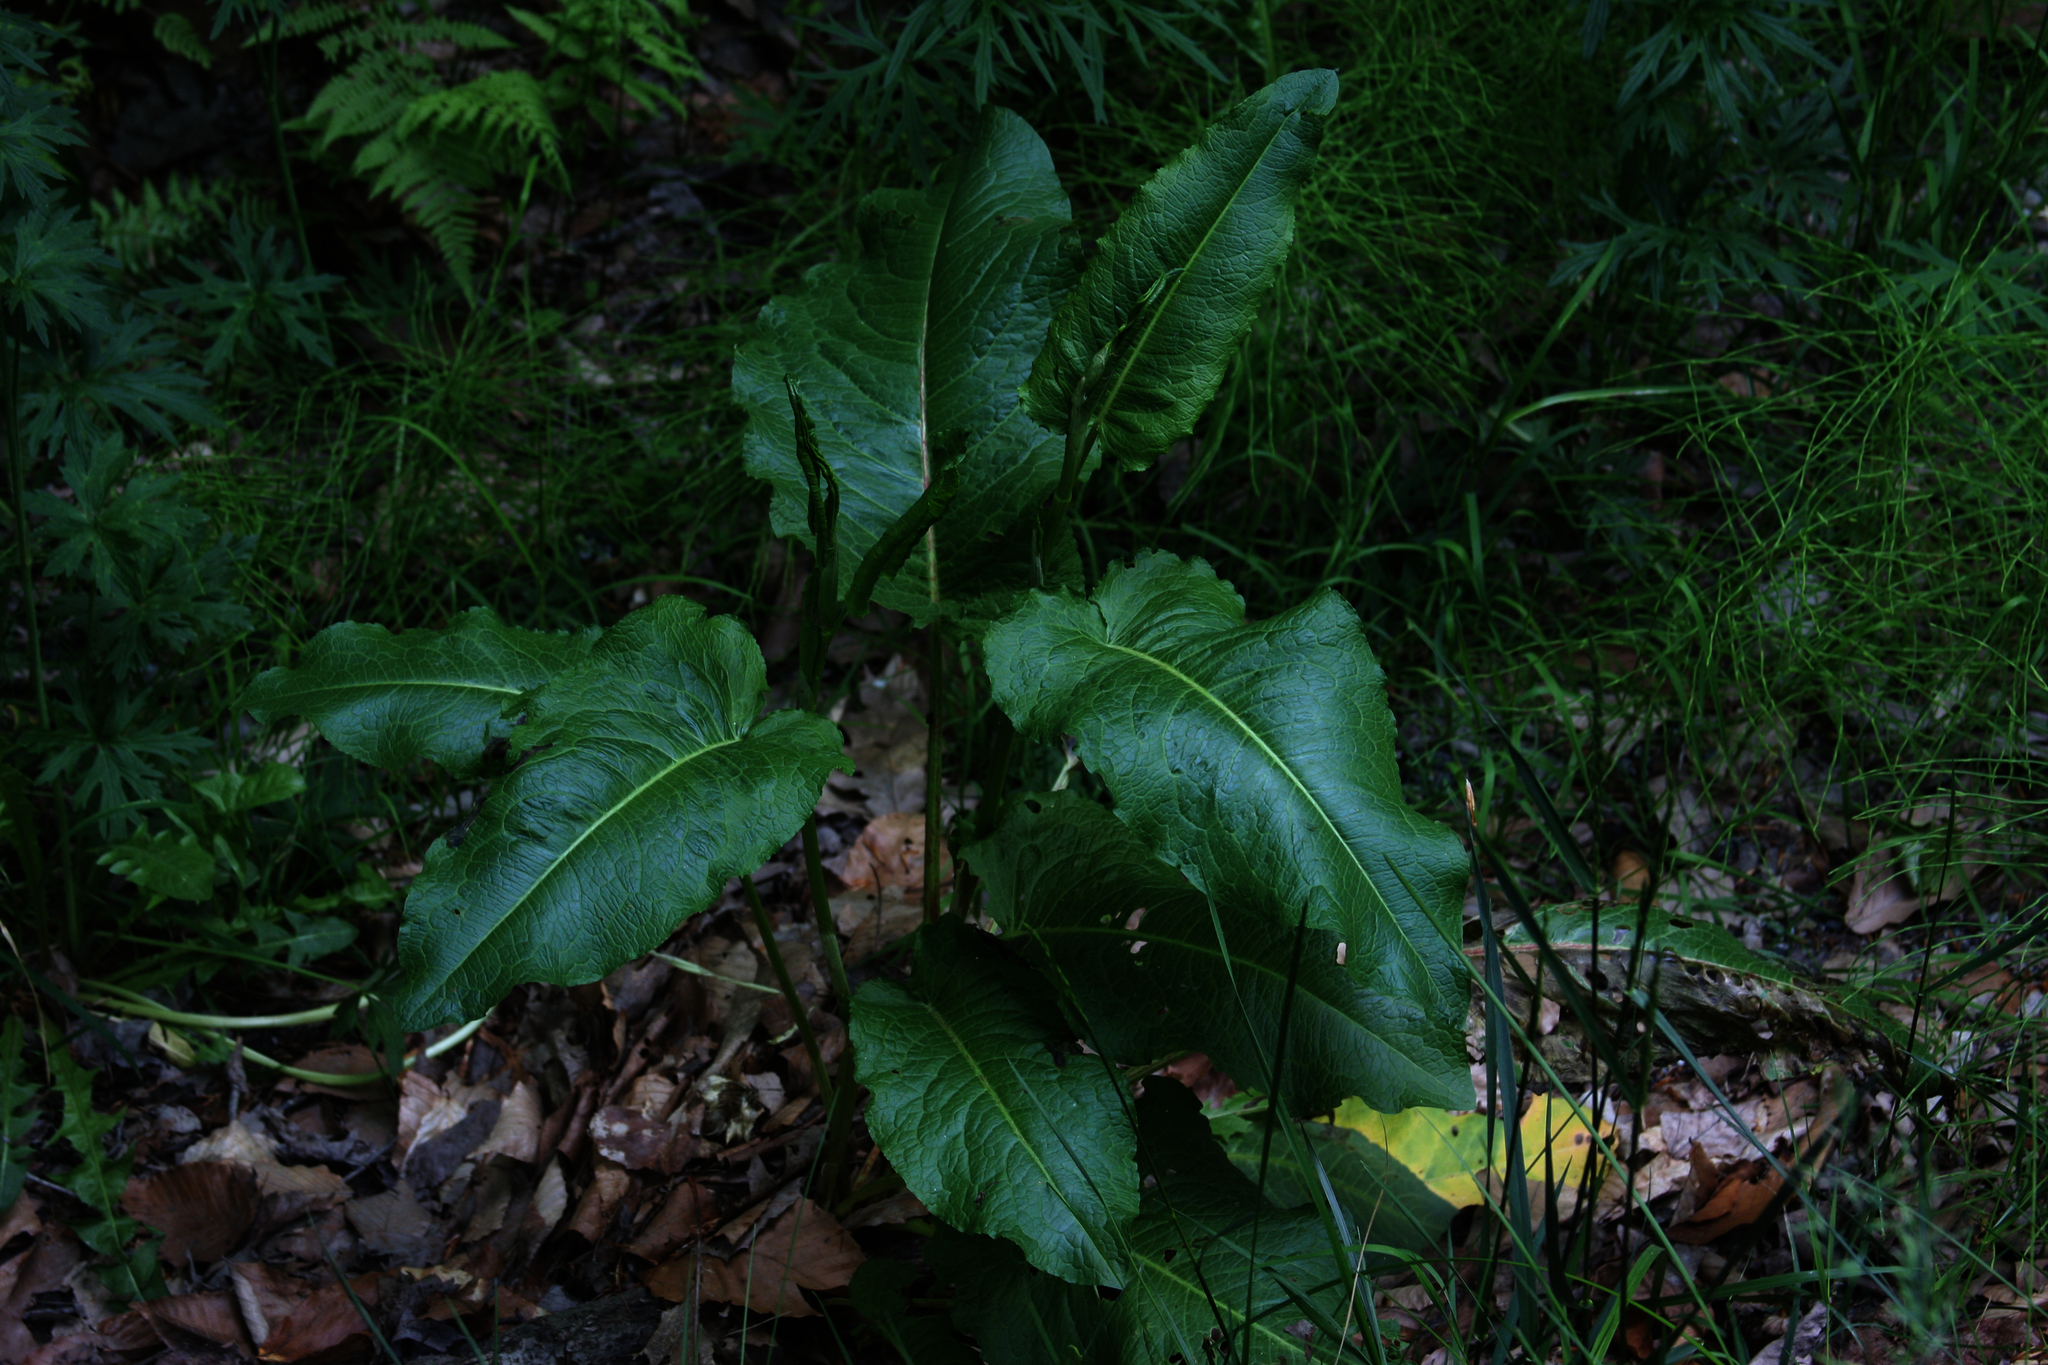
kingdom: Plantae
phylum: Tracheophyta
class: Magnoliopsida
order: Caryophyllales
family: Polygonaceae
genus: Rumex
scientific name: Rumex obtusifolius
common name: Bitter dock
